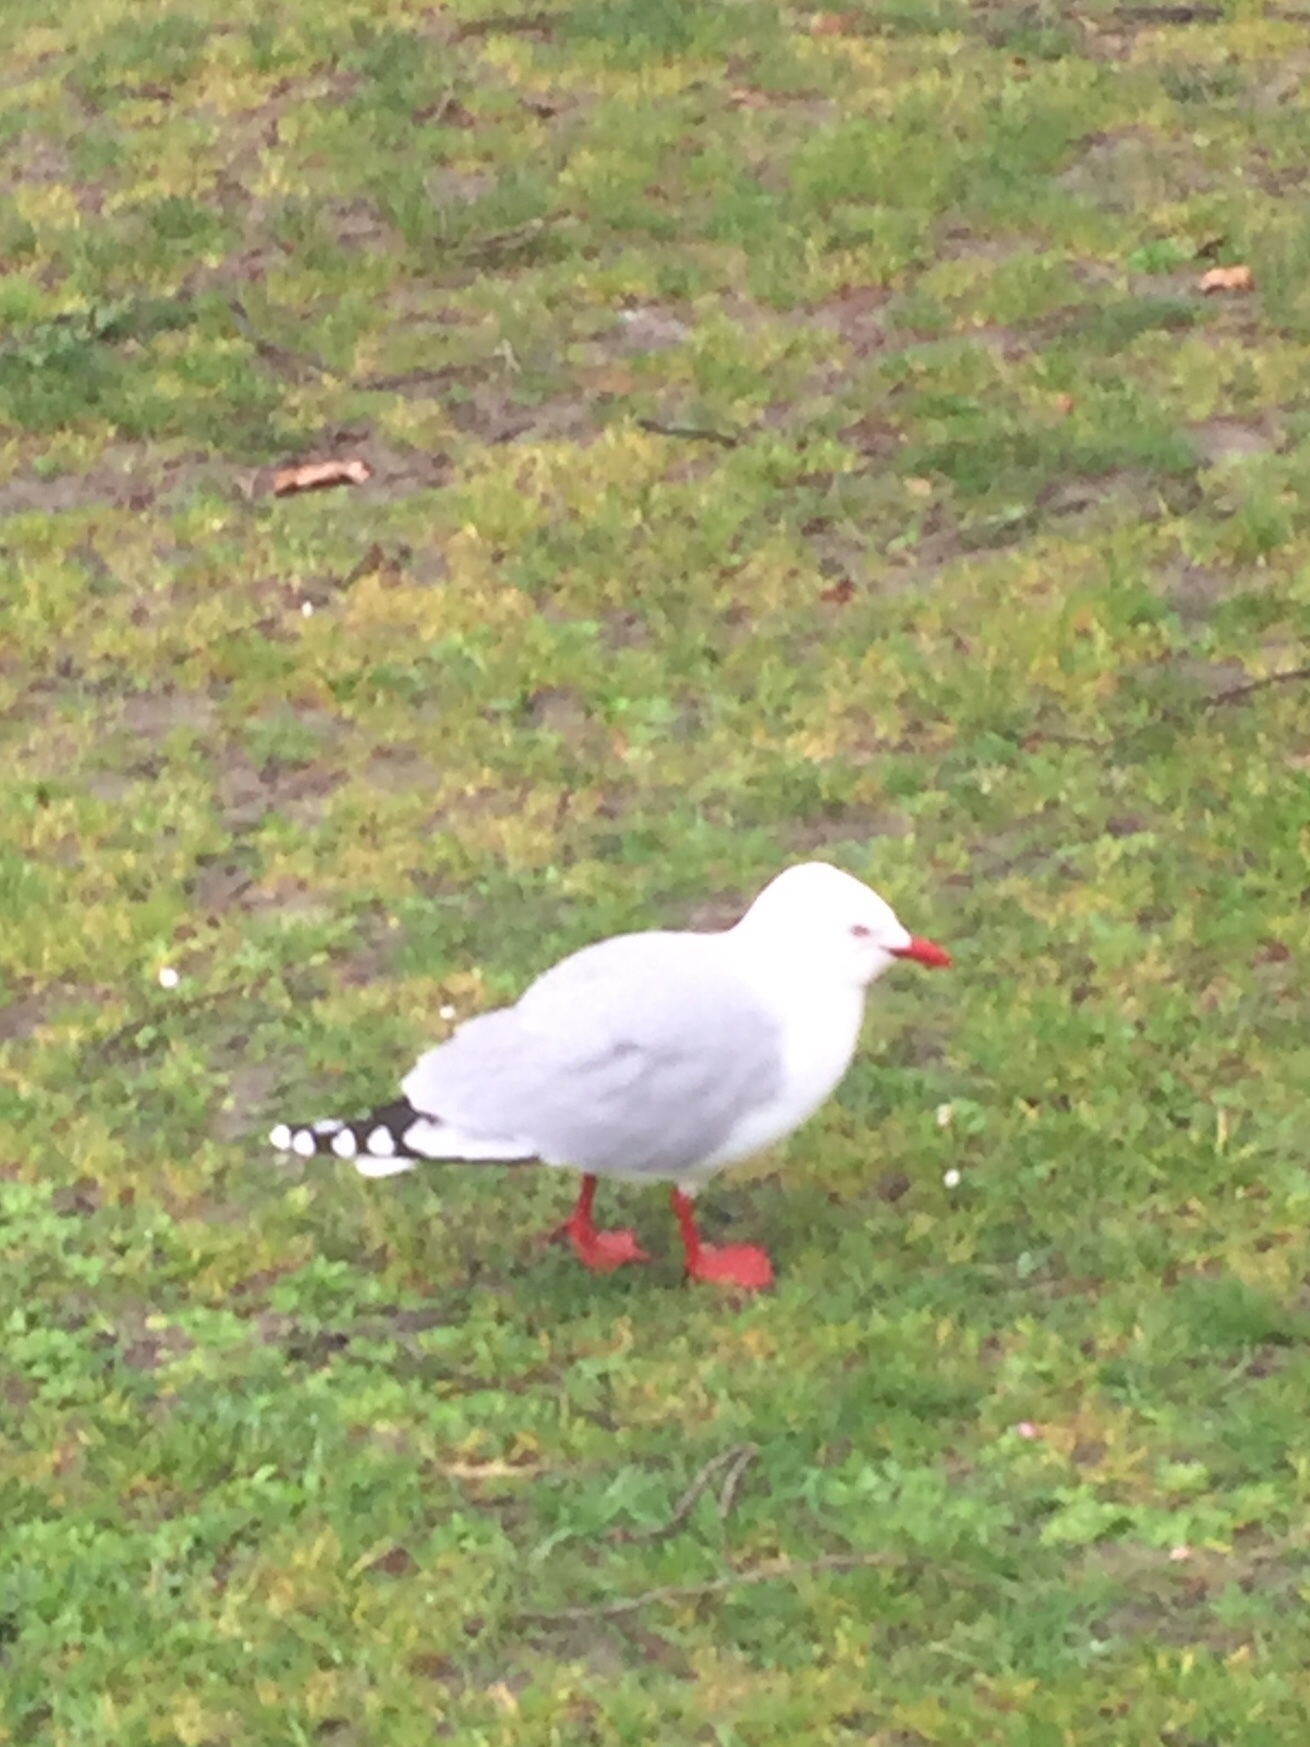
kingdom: Animalia
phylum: Chordata
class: Aves
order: Charadriiformes
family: Laridae
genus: Chroicocephalus
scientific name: Chroicocephalus novaehollandiae
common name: Silver gull
